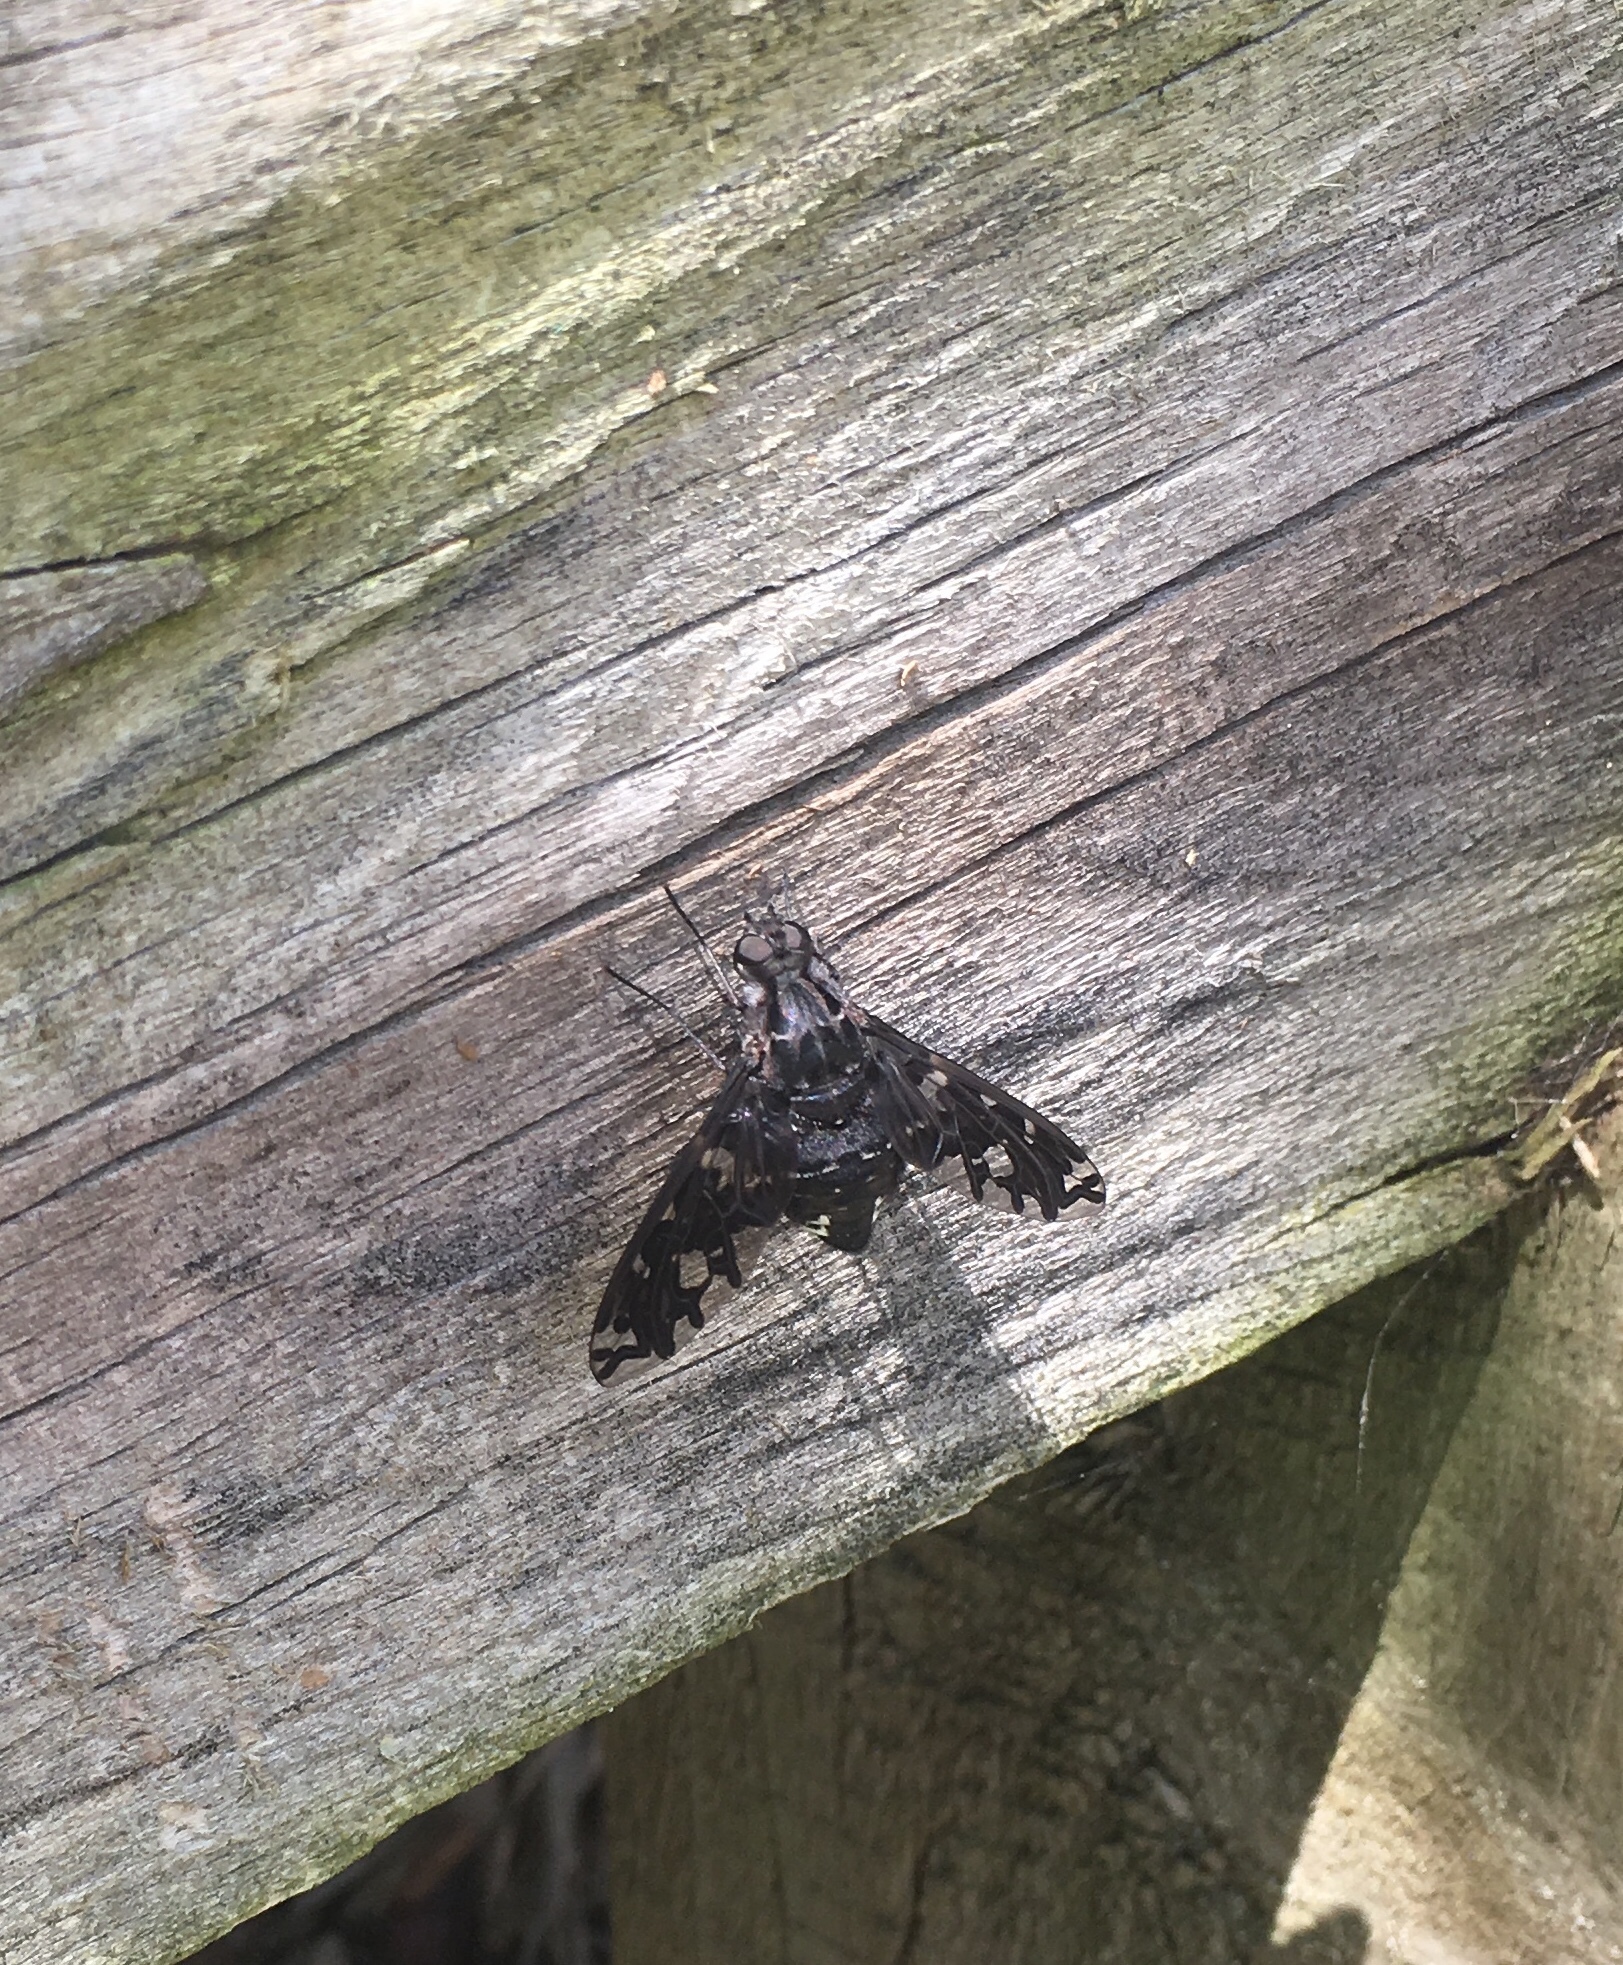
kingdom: Animalia
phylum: Arthropoda
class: Insecta
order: Diptera
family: Bombyliidae
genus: Xenox
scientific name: Xenox tigrinus
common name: Tiger bee fly
